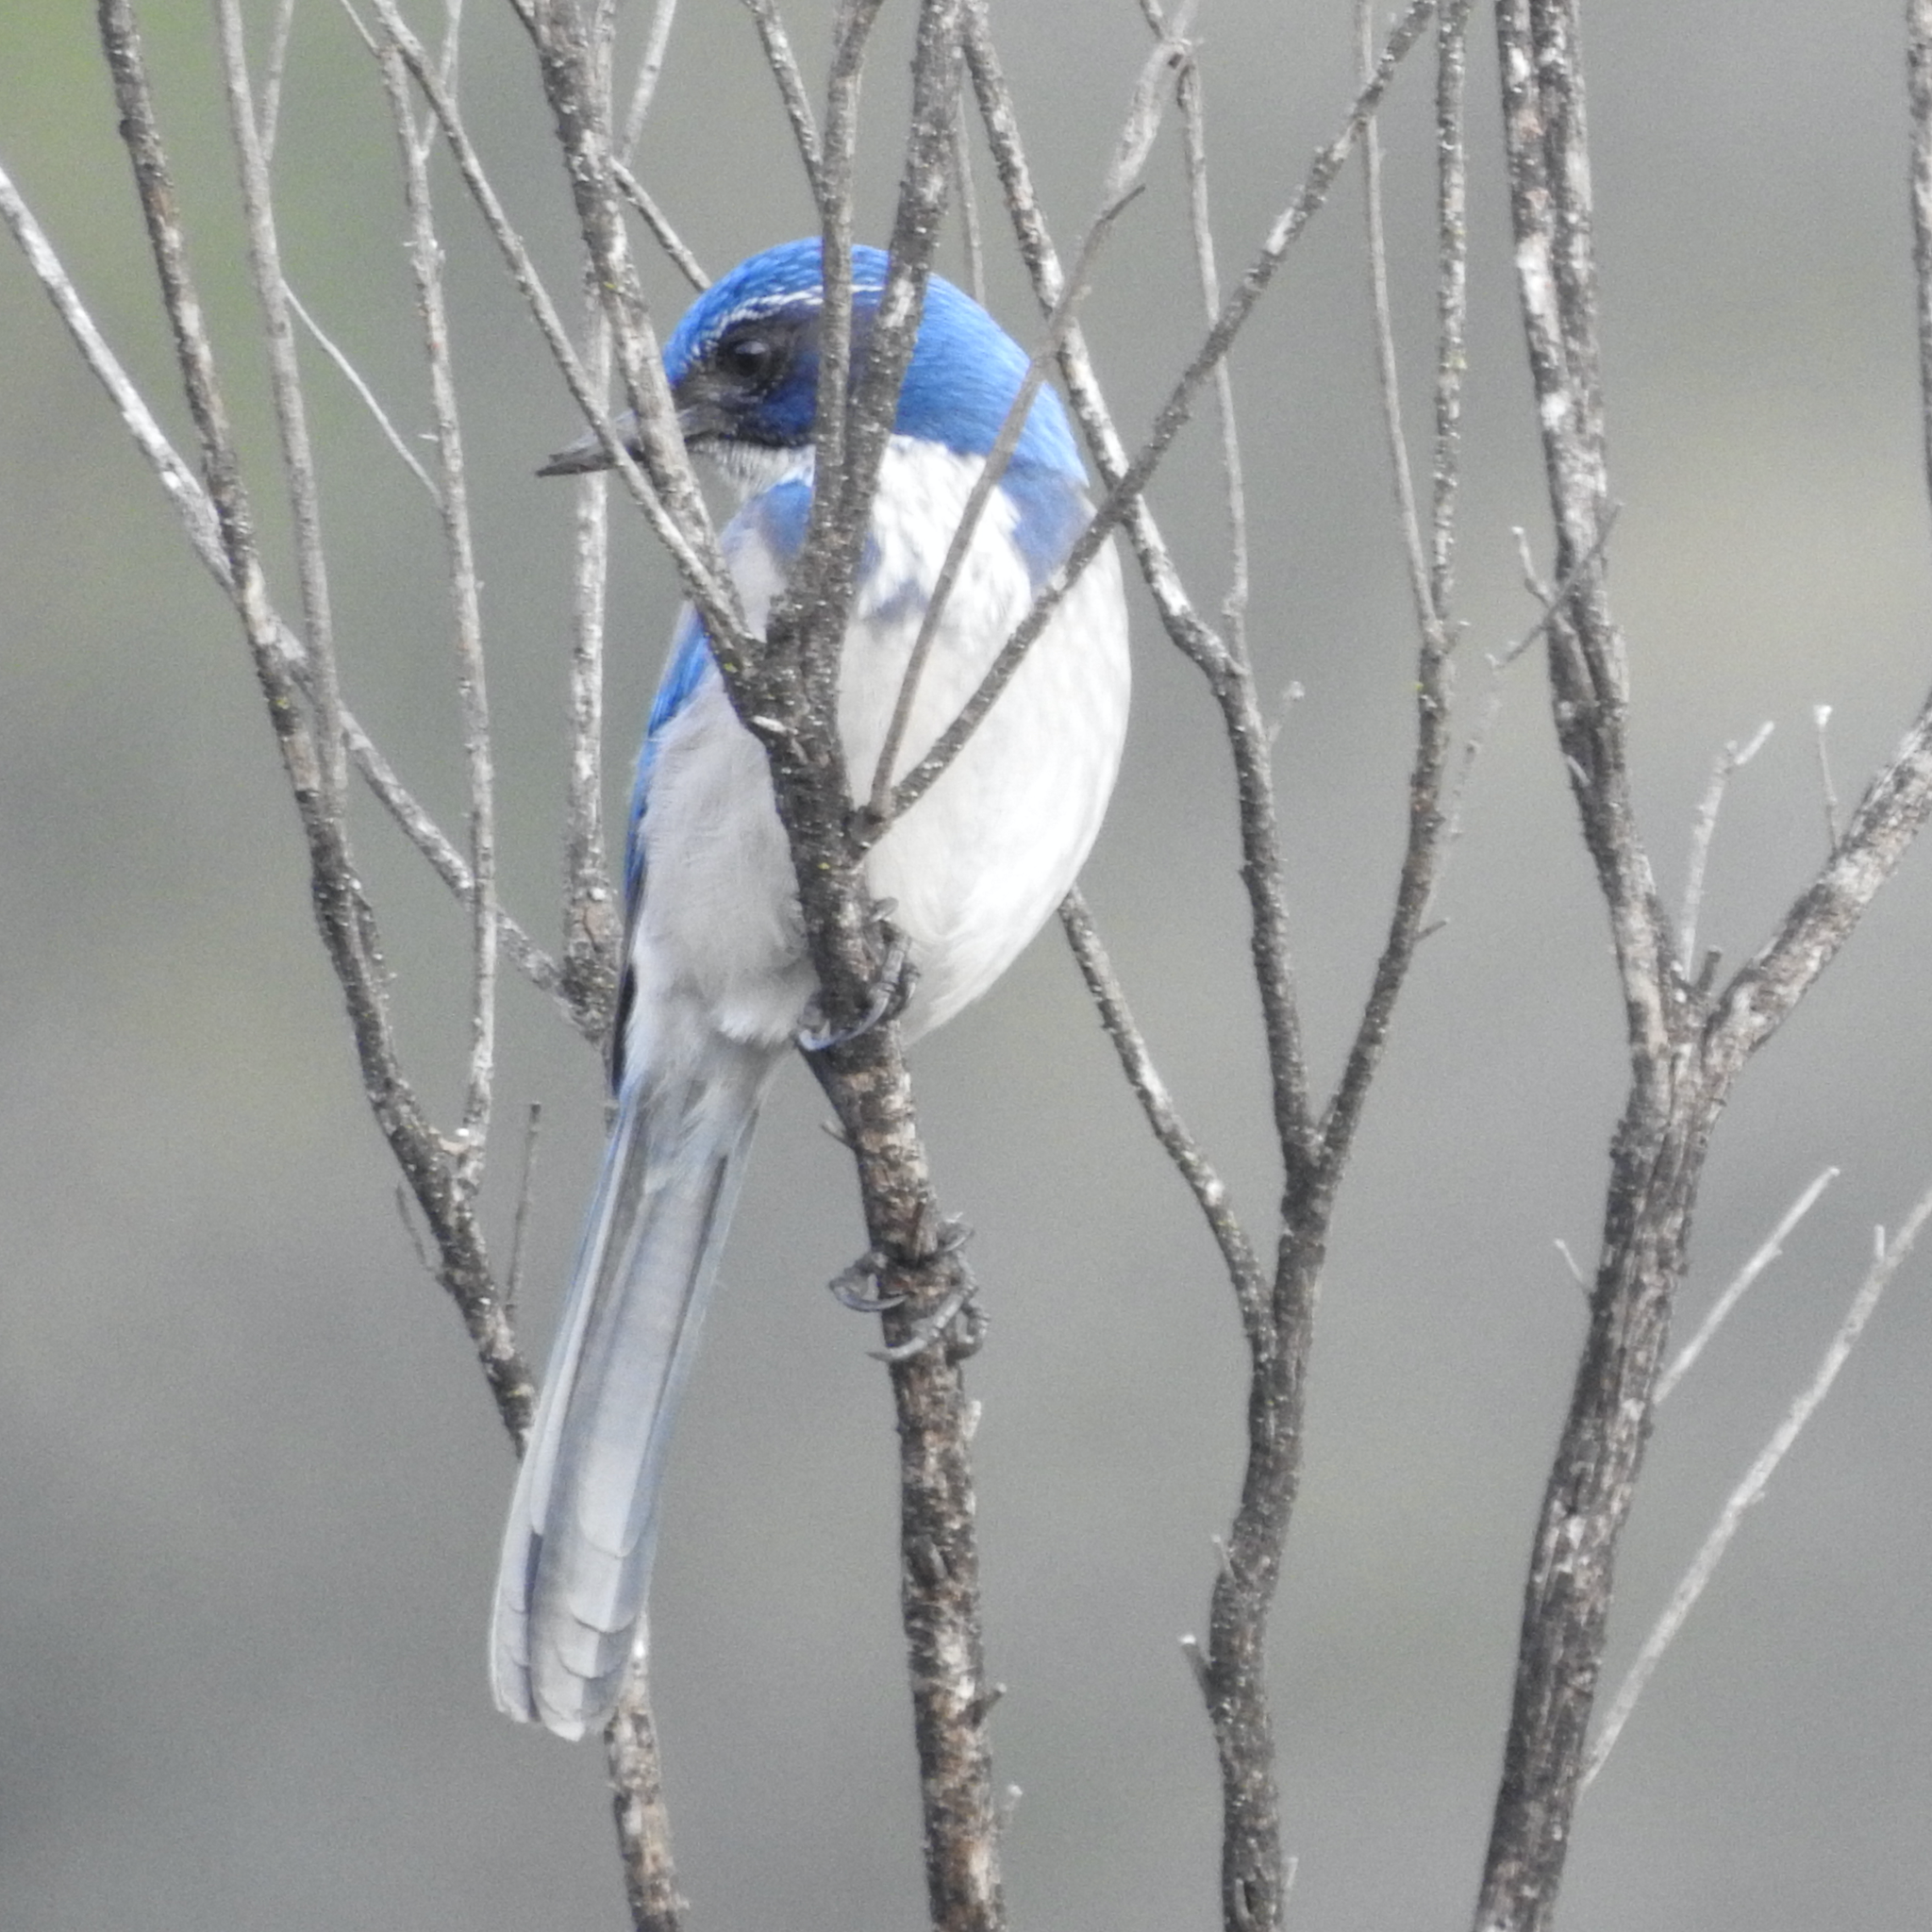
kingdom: Animalia
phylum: Chordata
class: Aves
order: Passeriformes
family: Corvidae
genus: Aphelocoma
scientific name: Aphelocoma californica
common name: California scrub-jay
